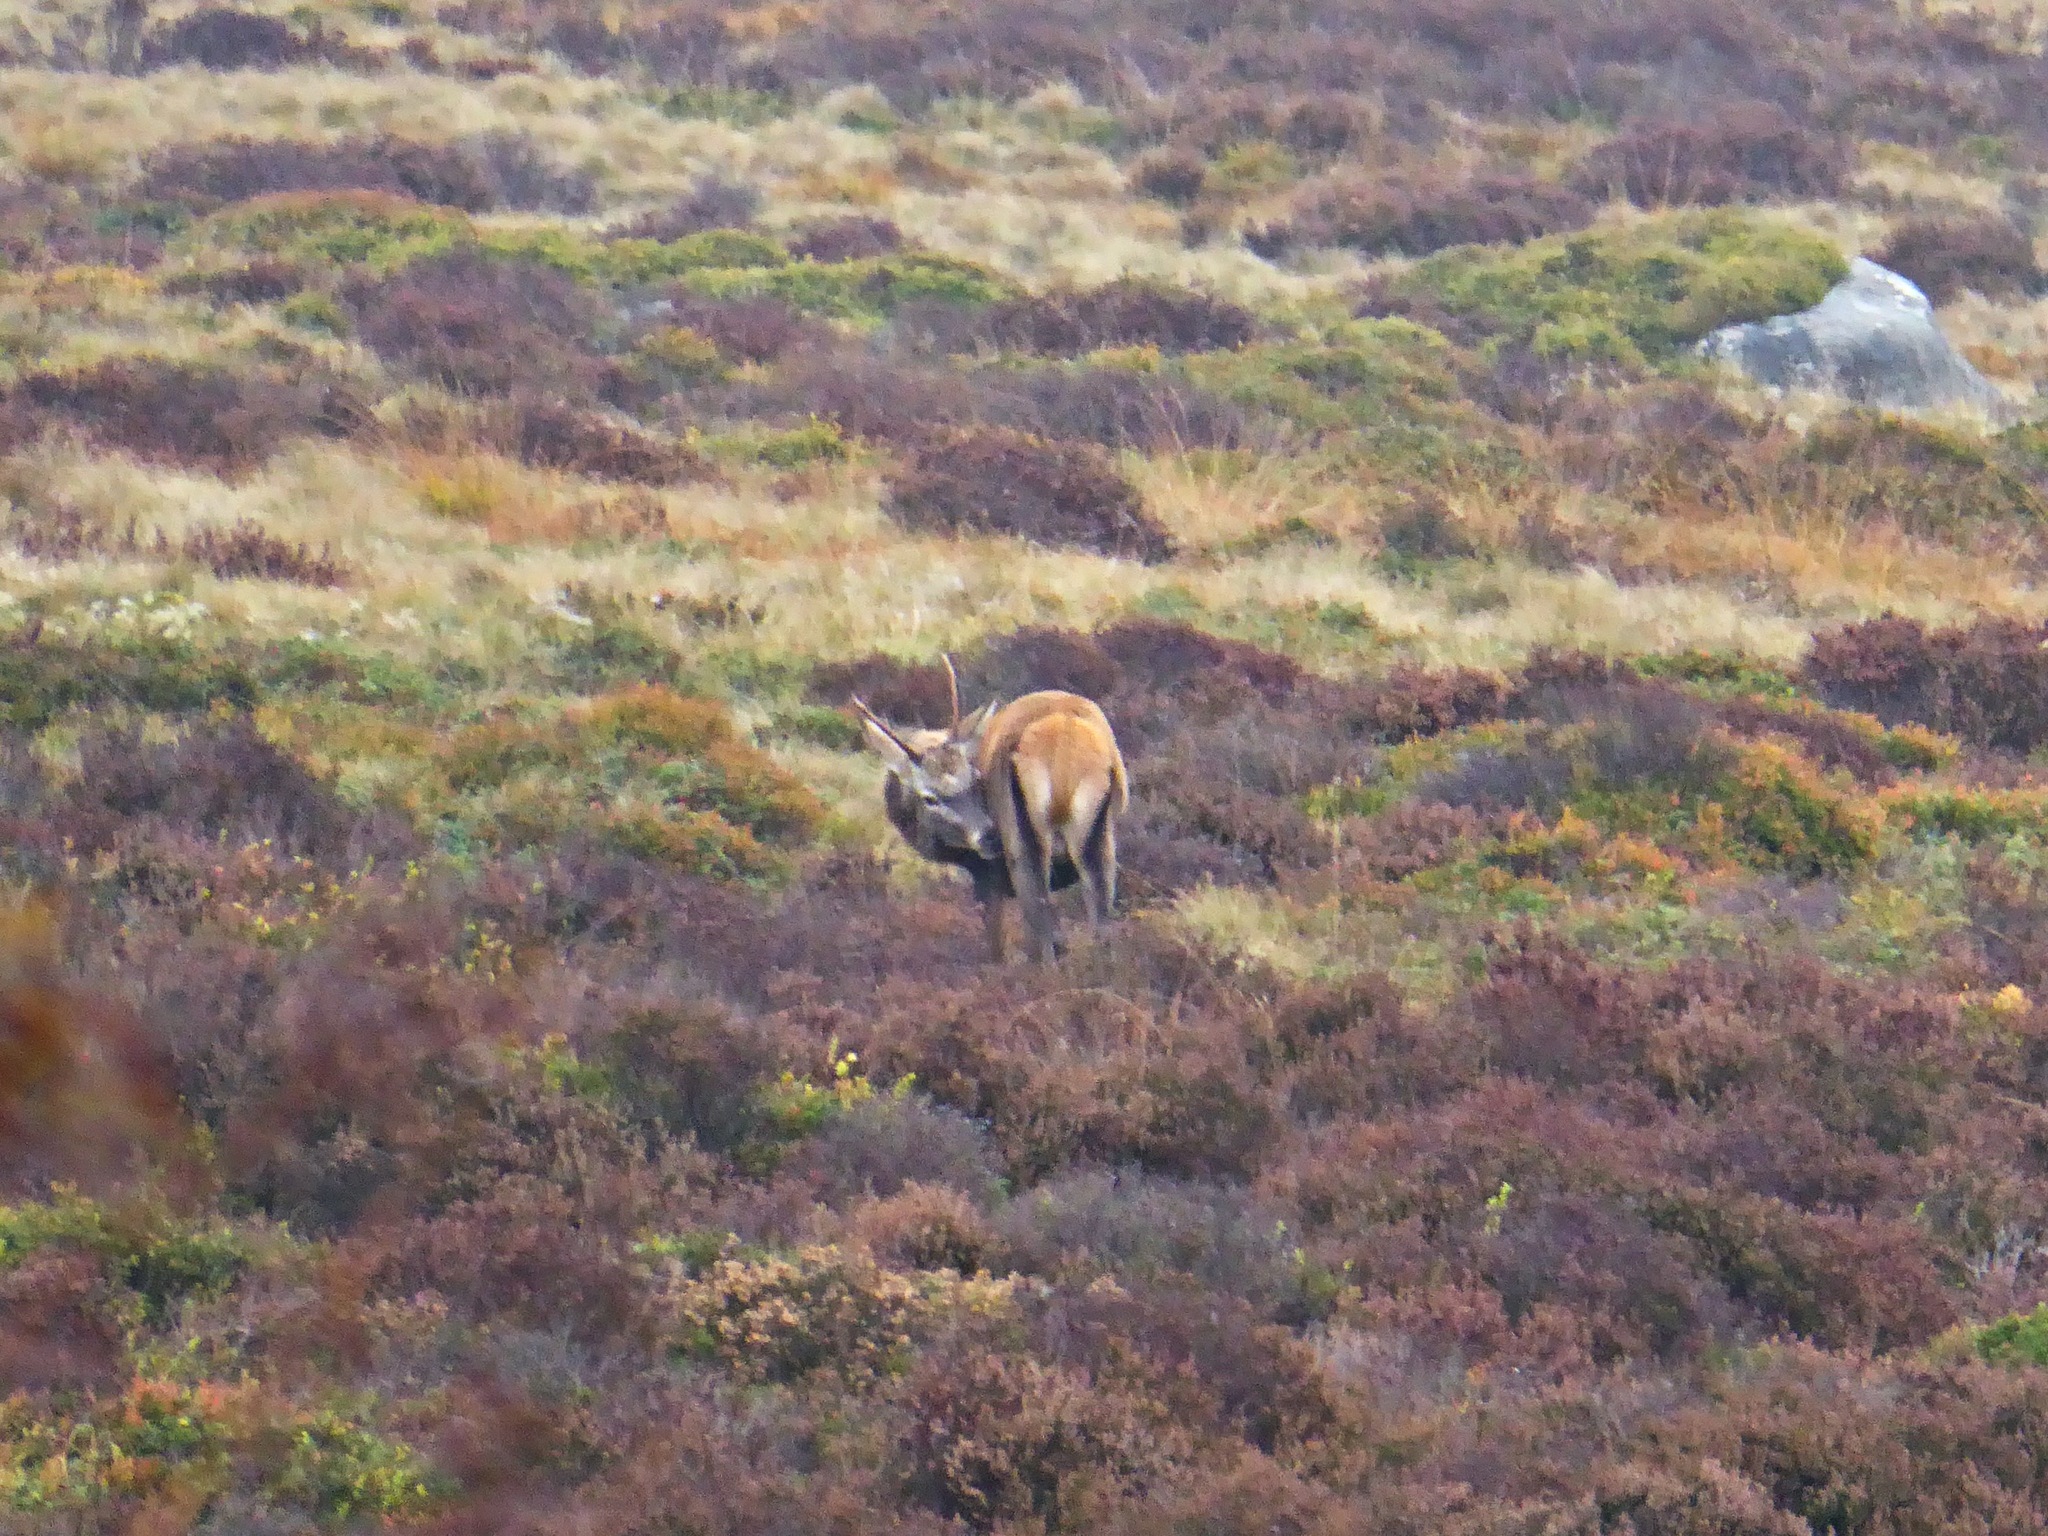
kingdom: Animalia
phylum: Chordata
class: Mammalia
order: Artiodactyla
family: Cervidae
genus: Cervus
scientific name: Cervus elaphus
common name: Red deer
